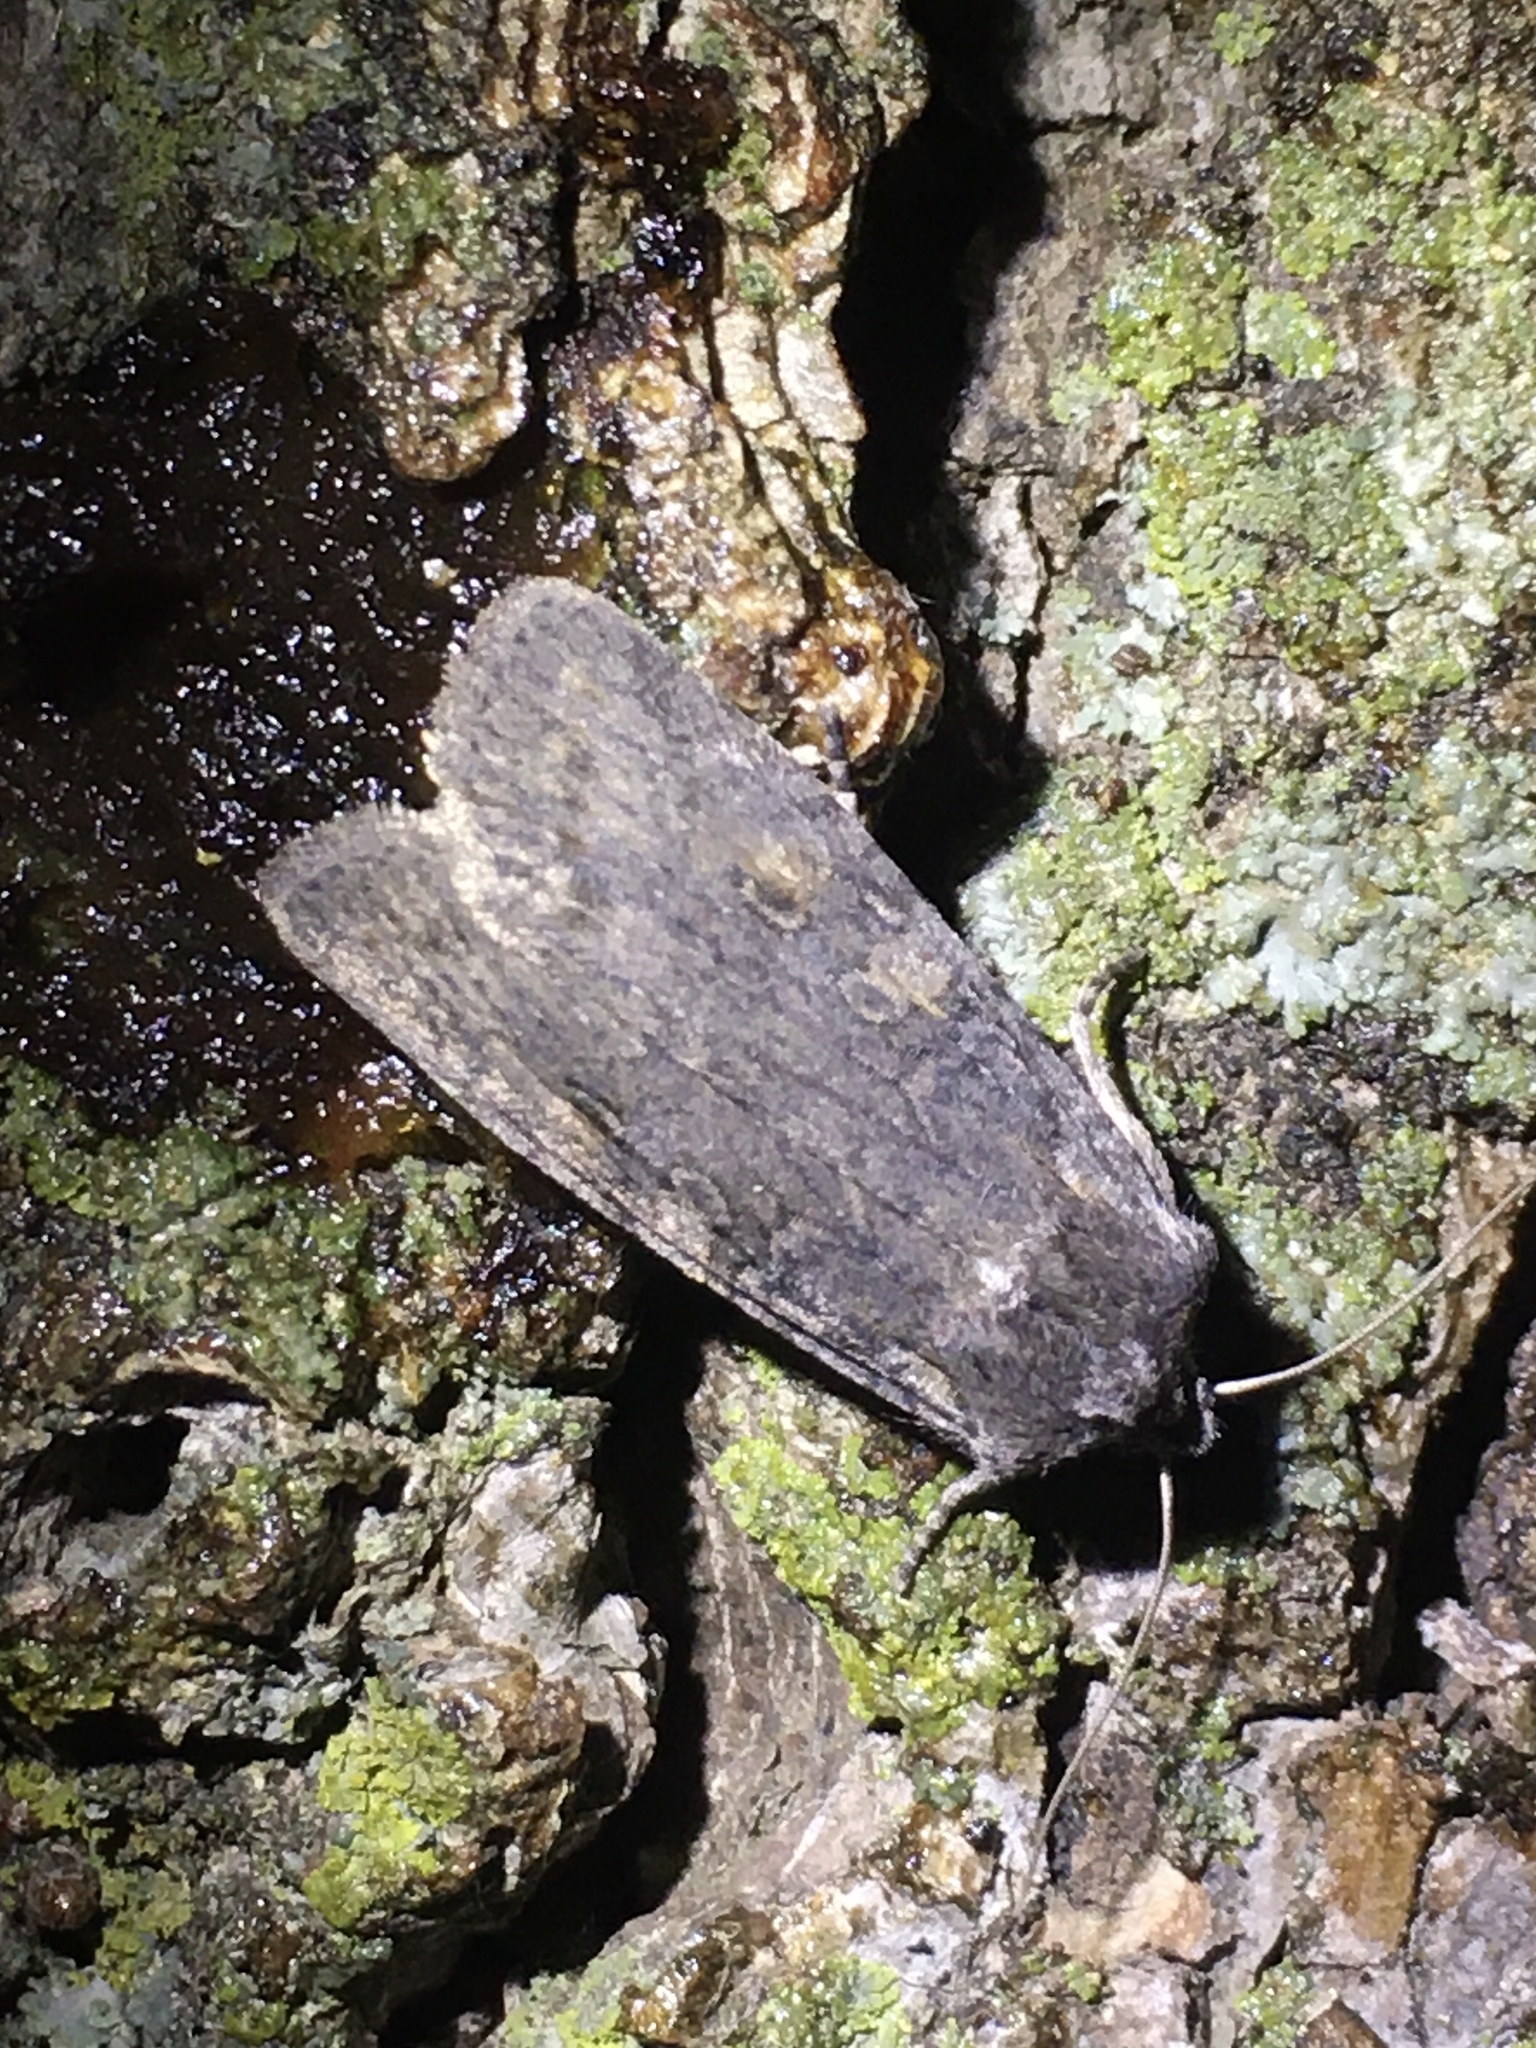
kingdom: Animalia
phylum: Arthropoda
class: Insecta
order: Lepidoptera
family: Noctuidae
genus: Lithophane
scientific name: Lithophane laticinerea
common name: Broad ashen pinion
